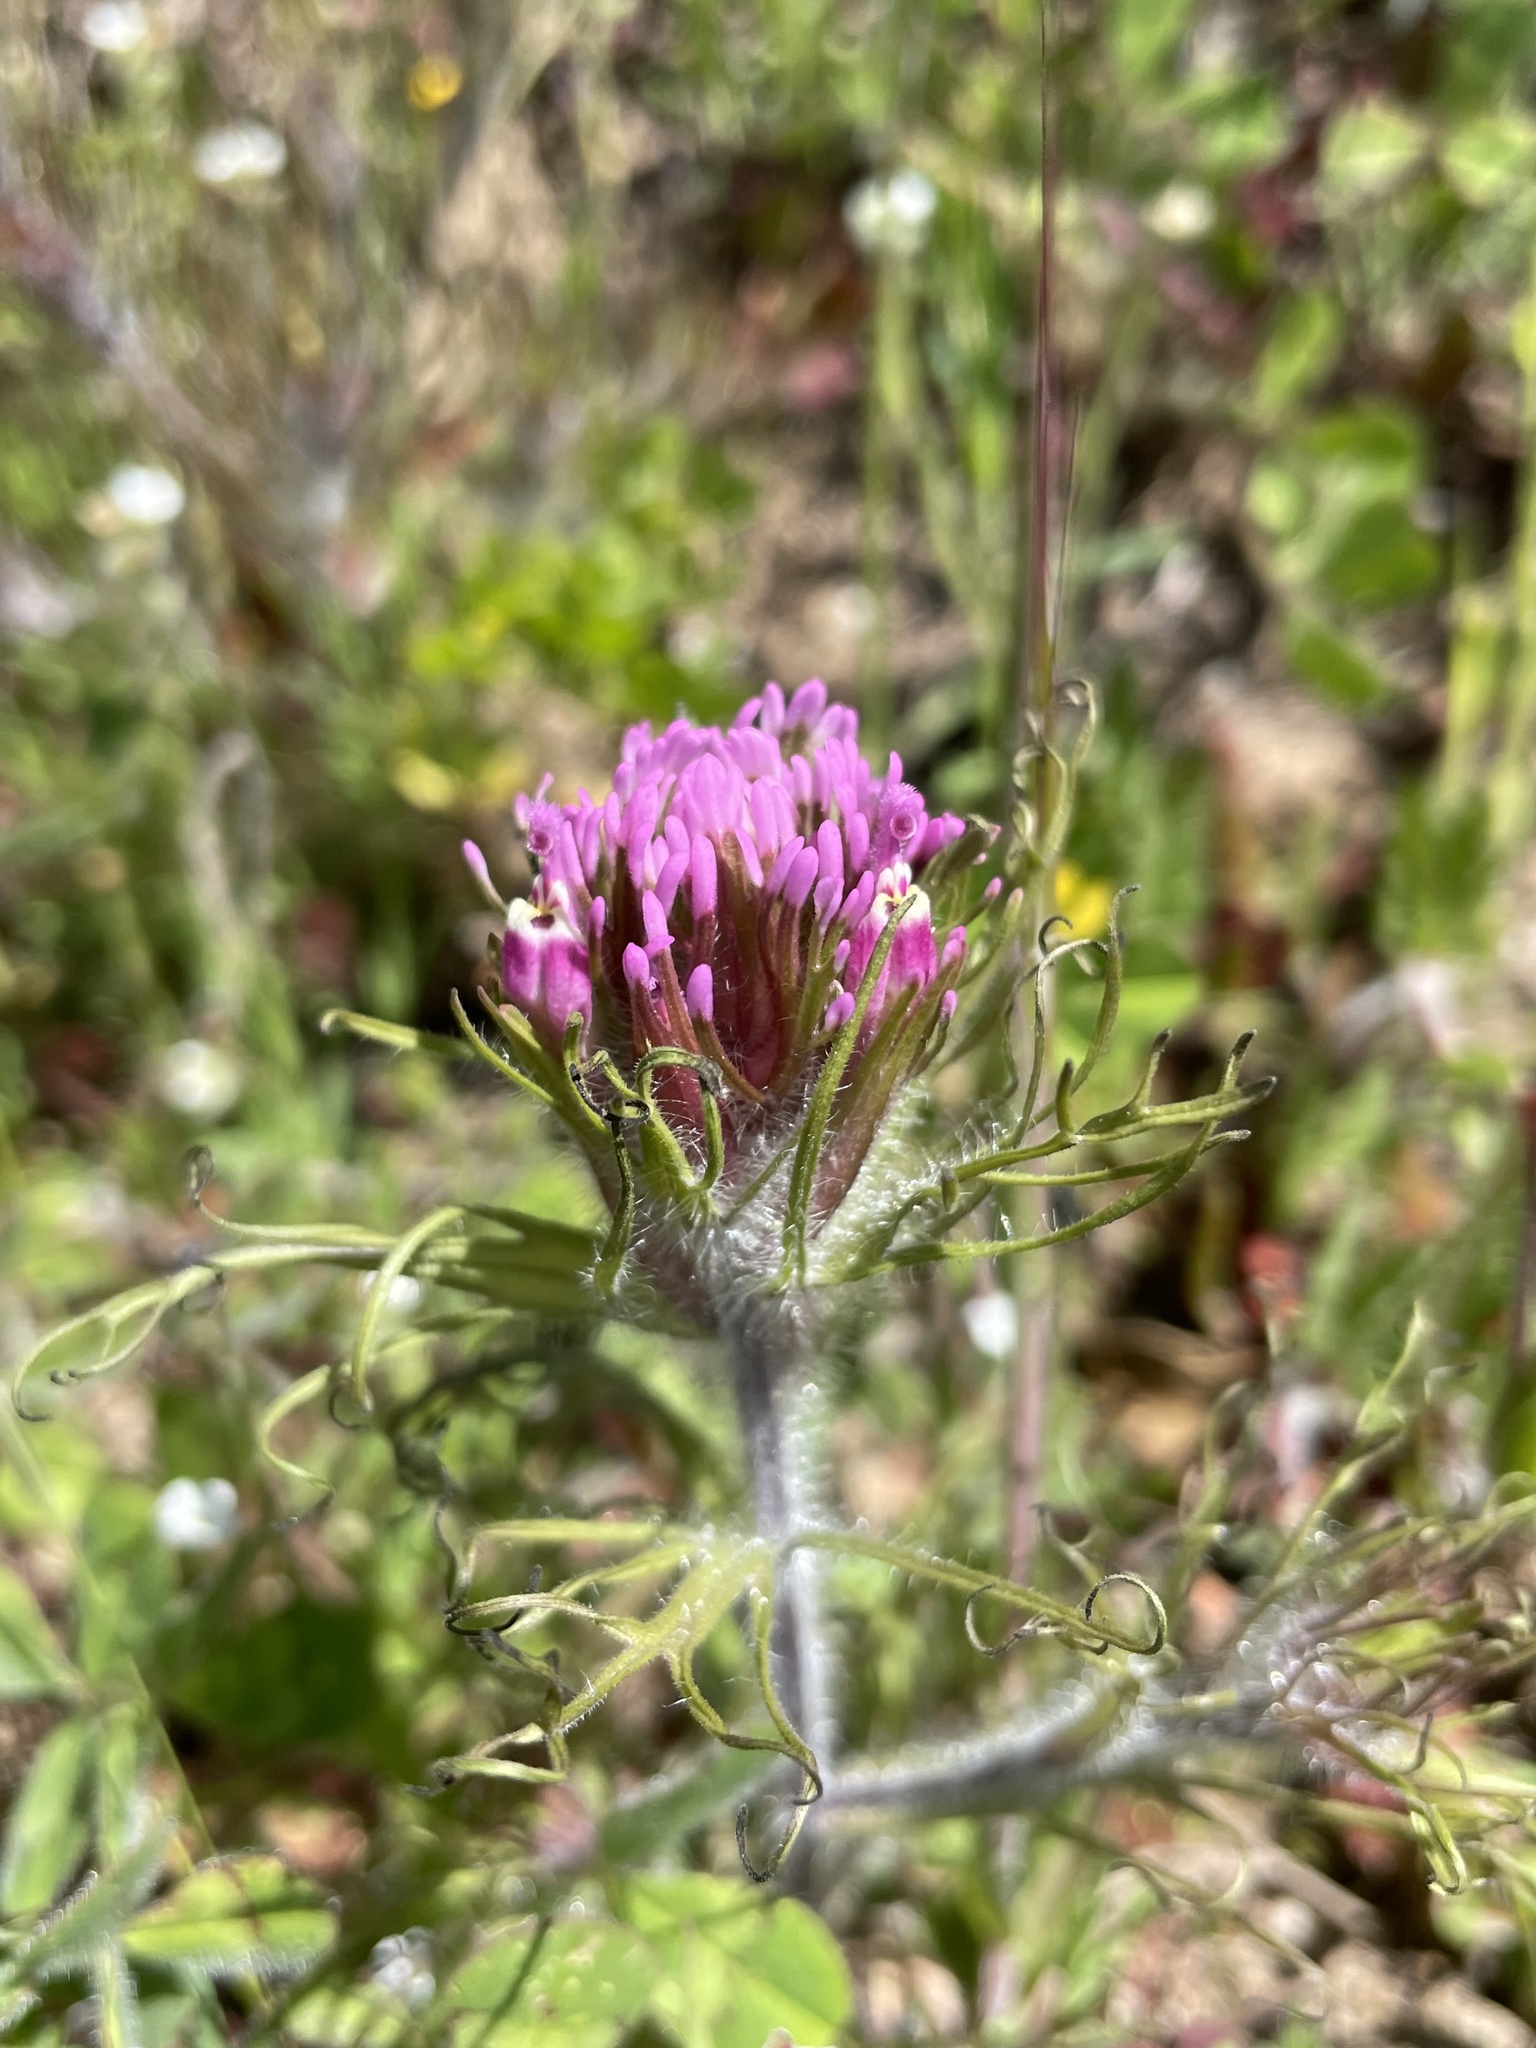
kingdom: Plantae
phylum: Tracheophyta
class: Magnoliopsida
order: Lamiales
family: Orobanchaceae
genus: Castilleja
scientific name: Castilleja exserta
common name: Purple owl-clover
